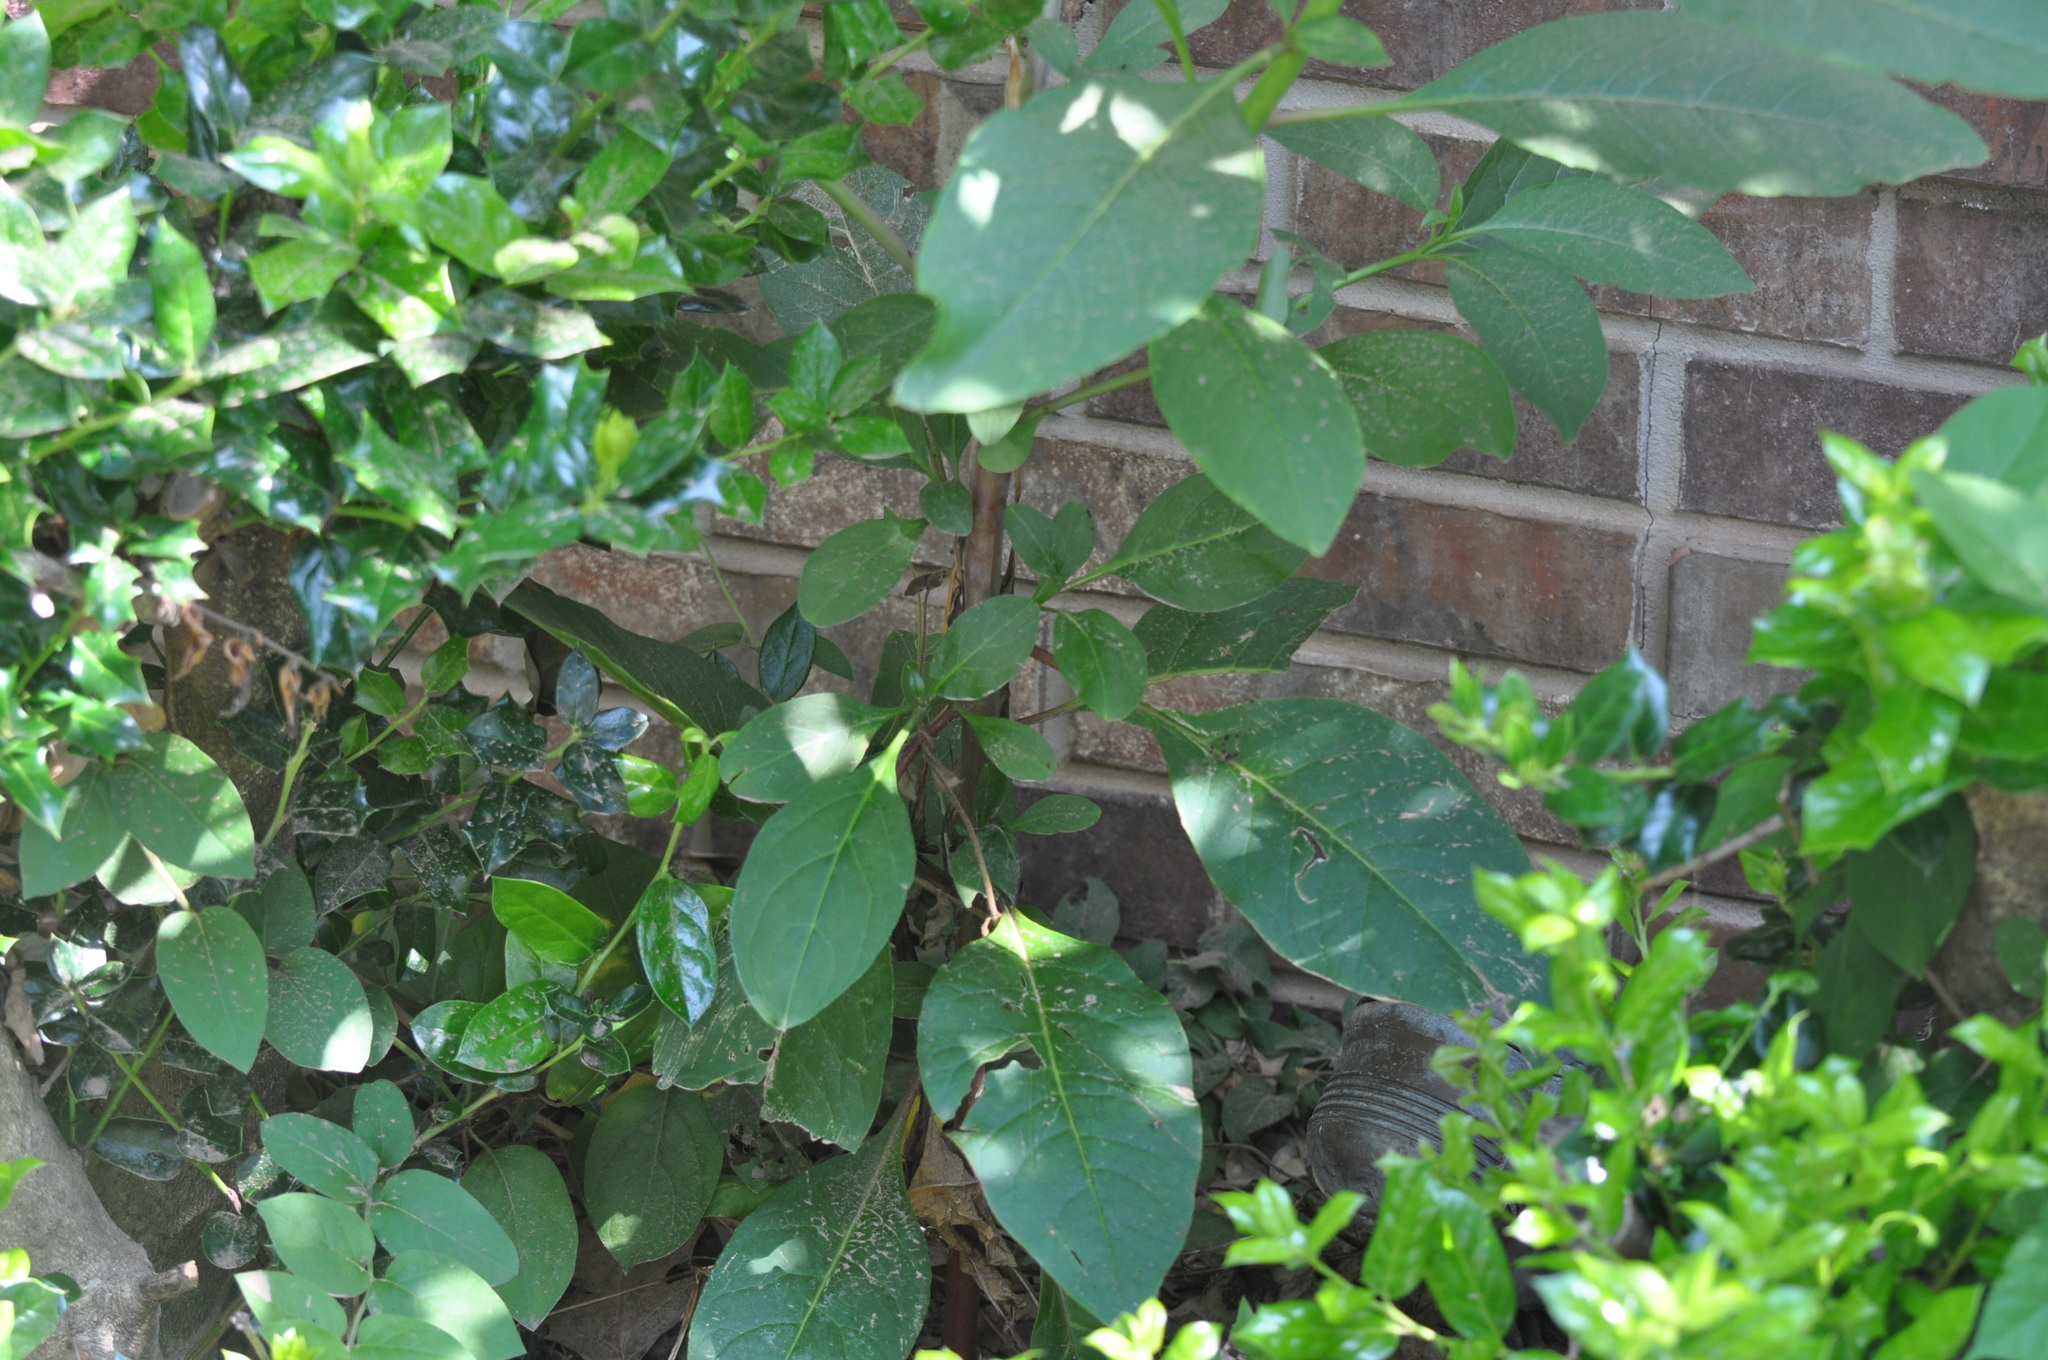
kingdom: Plantae
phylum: Tracheophyta
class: Magnoliopsida
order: Caryophyllales
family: Phytolaccaceae
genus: Phytolacca
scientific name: Phytolacca americana
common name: American pokeweed
